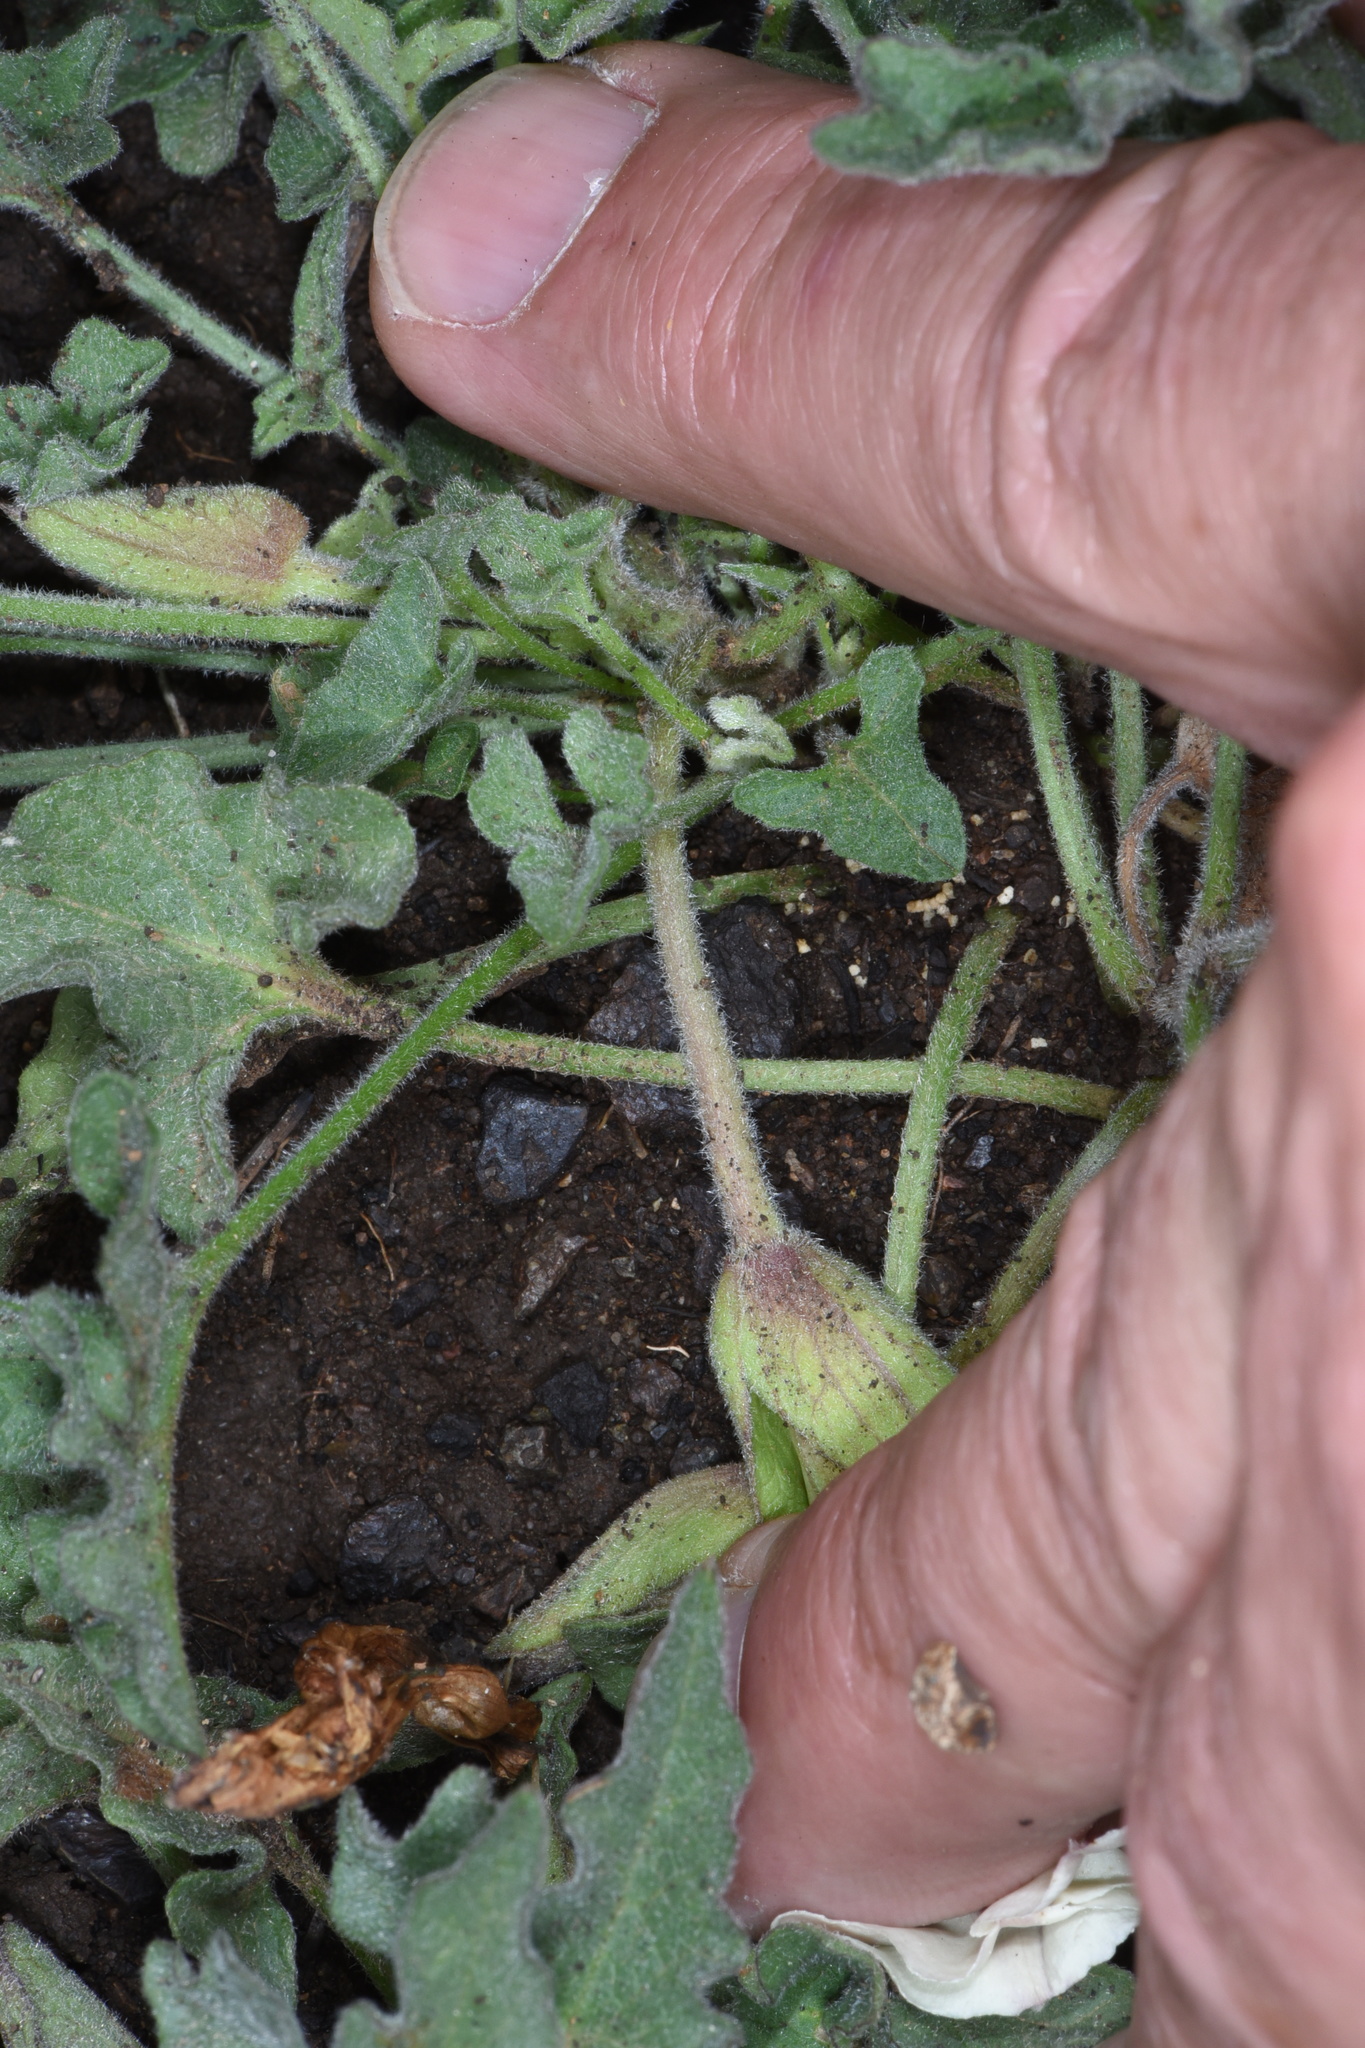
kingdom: Plantae
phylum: Tracheophyta
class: Magnoliopsida
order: Solanales
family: Convolvulaceae
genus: Calystegia
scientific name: Calystegia collina
